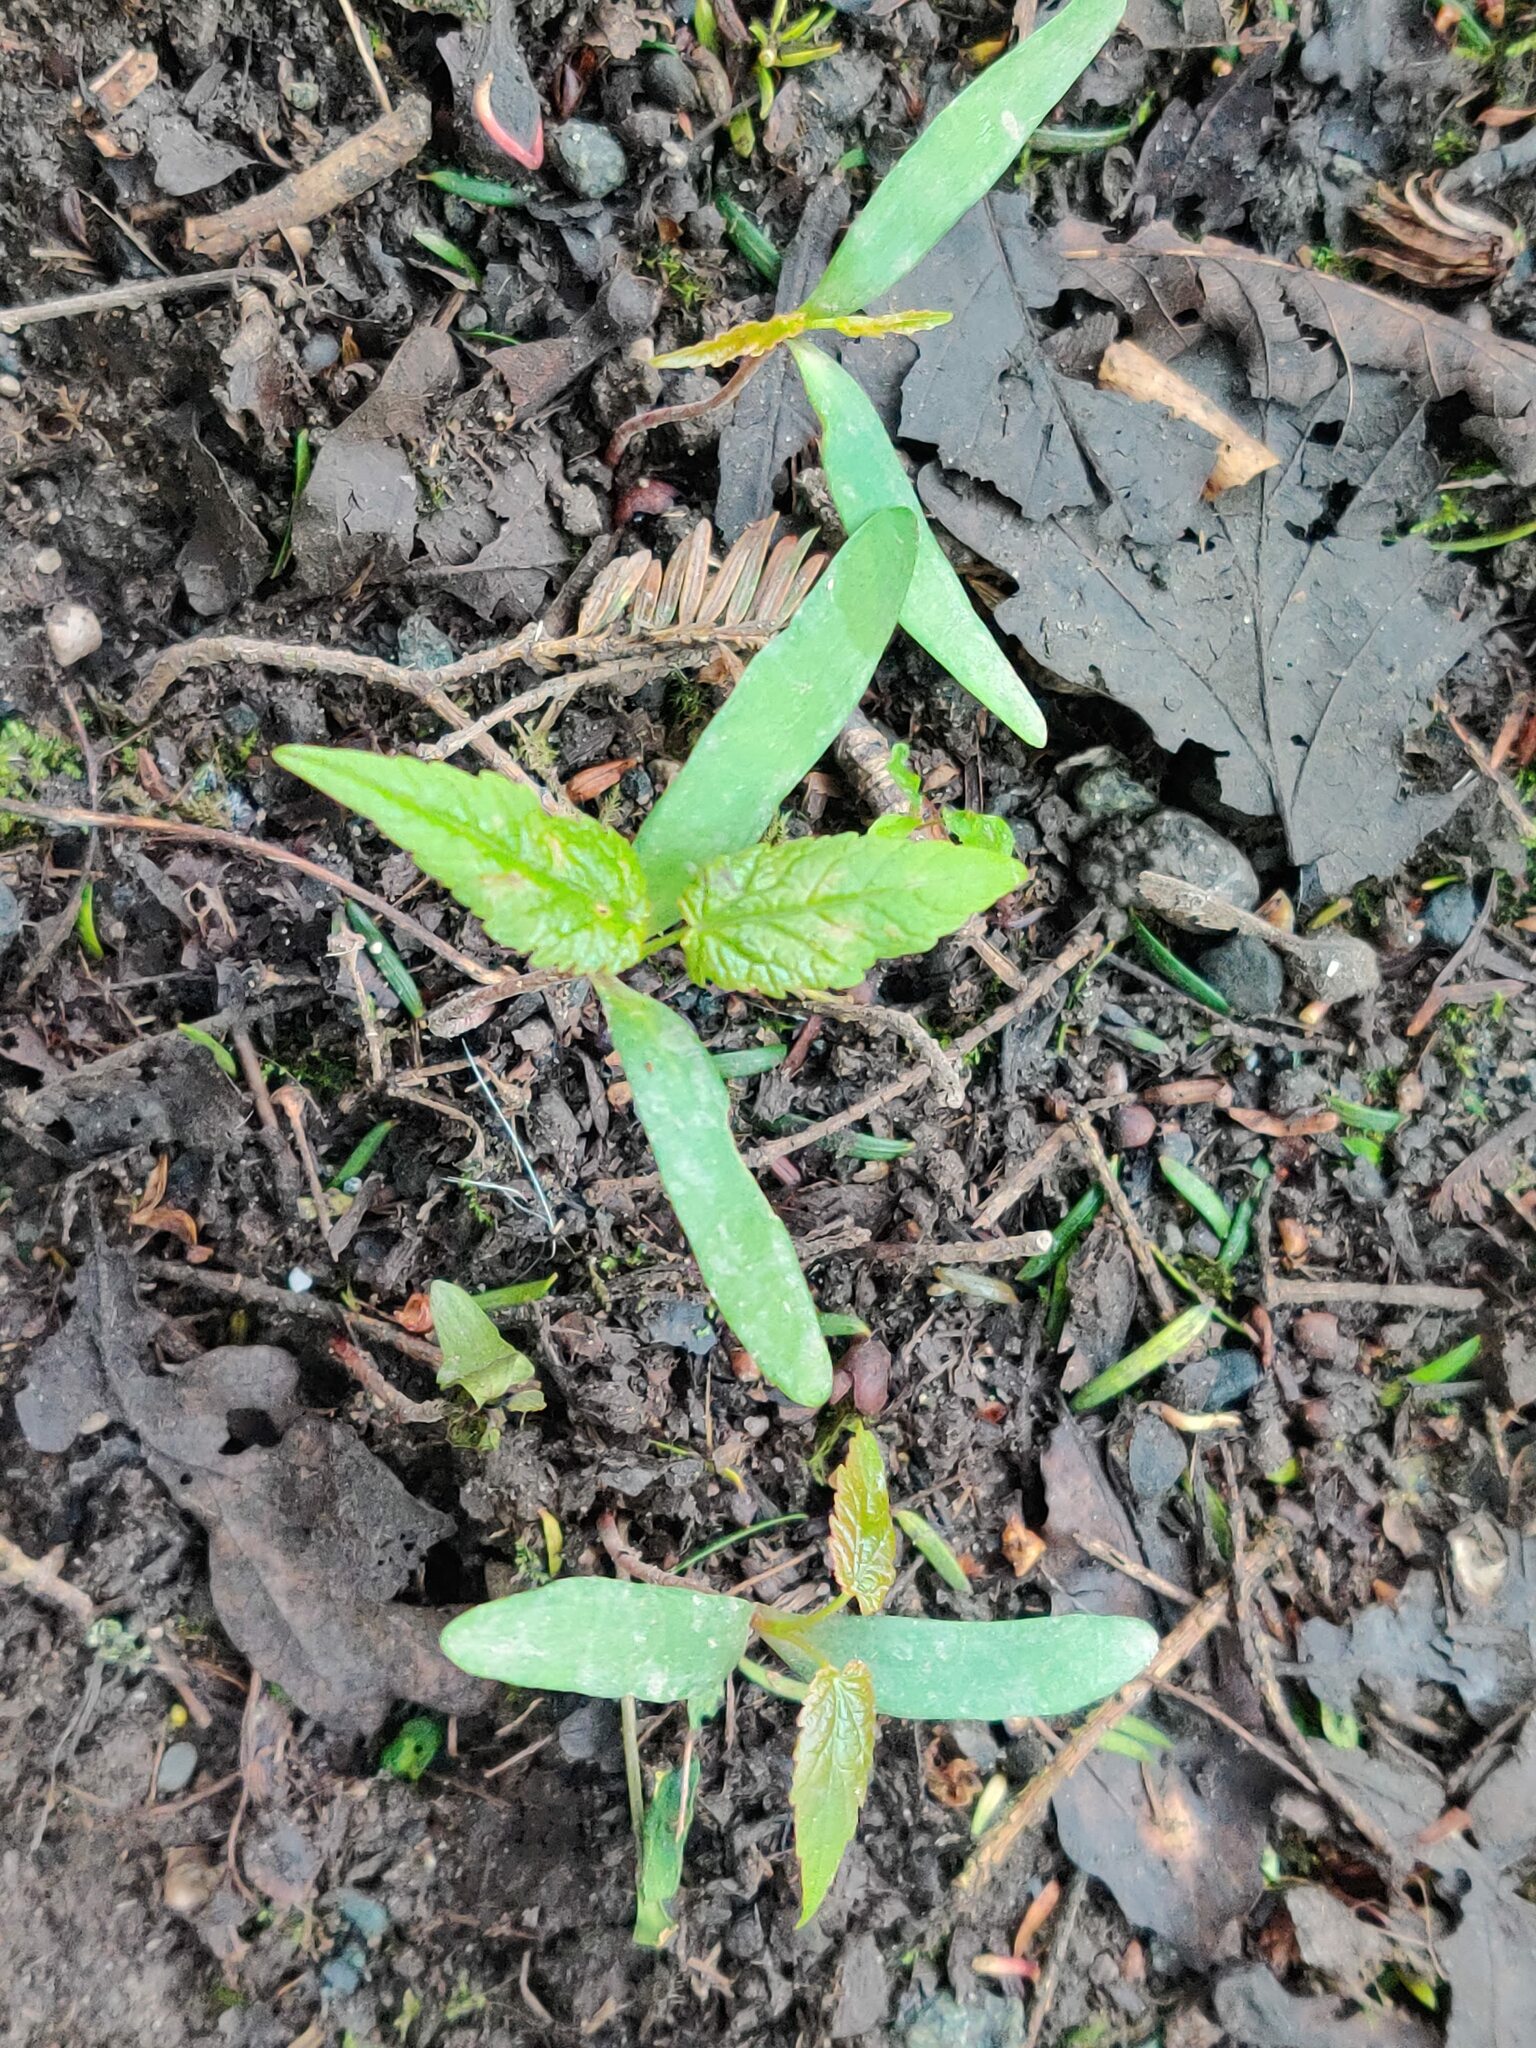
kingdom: Plantae
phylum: Tracheophyta
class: Magnoliopsida
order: Sapindales
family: Sapindaceae
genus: Acer
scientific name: Acer pseudoplatanus
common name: Sycamore
